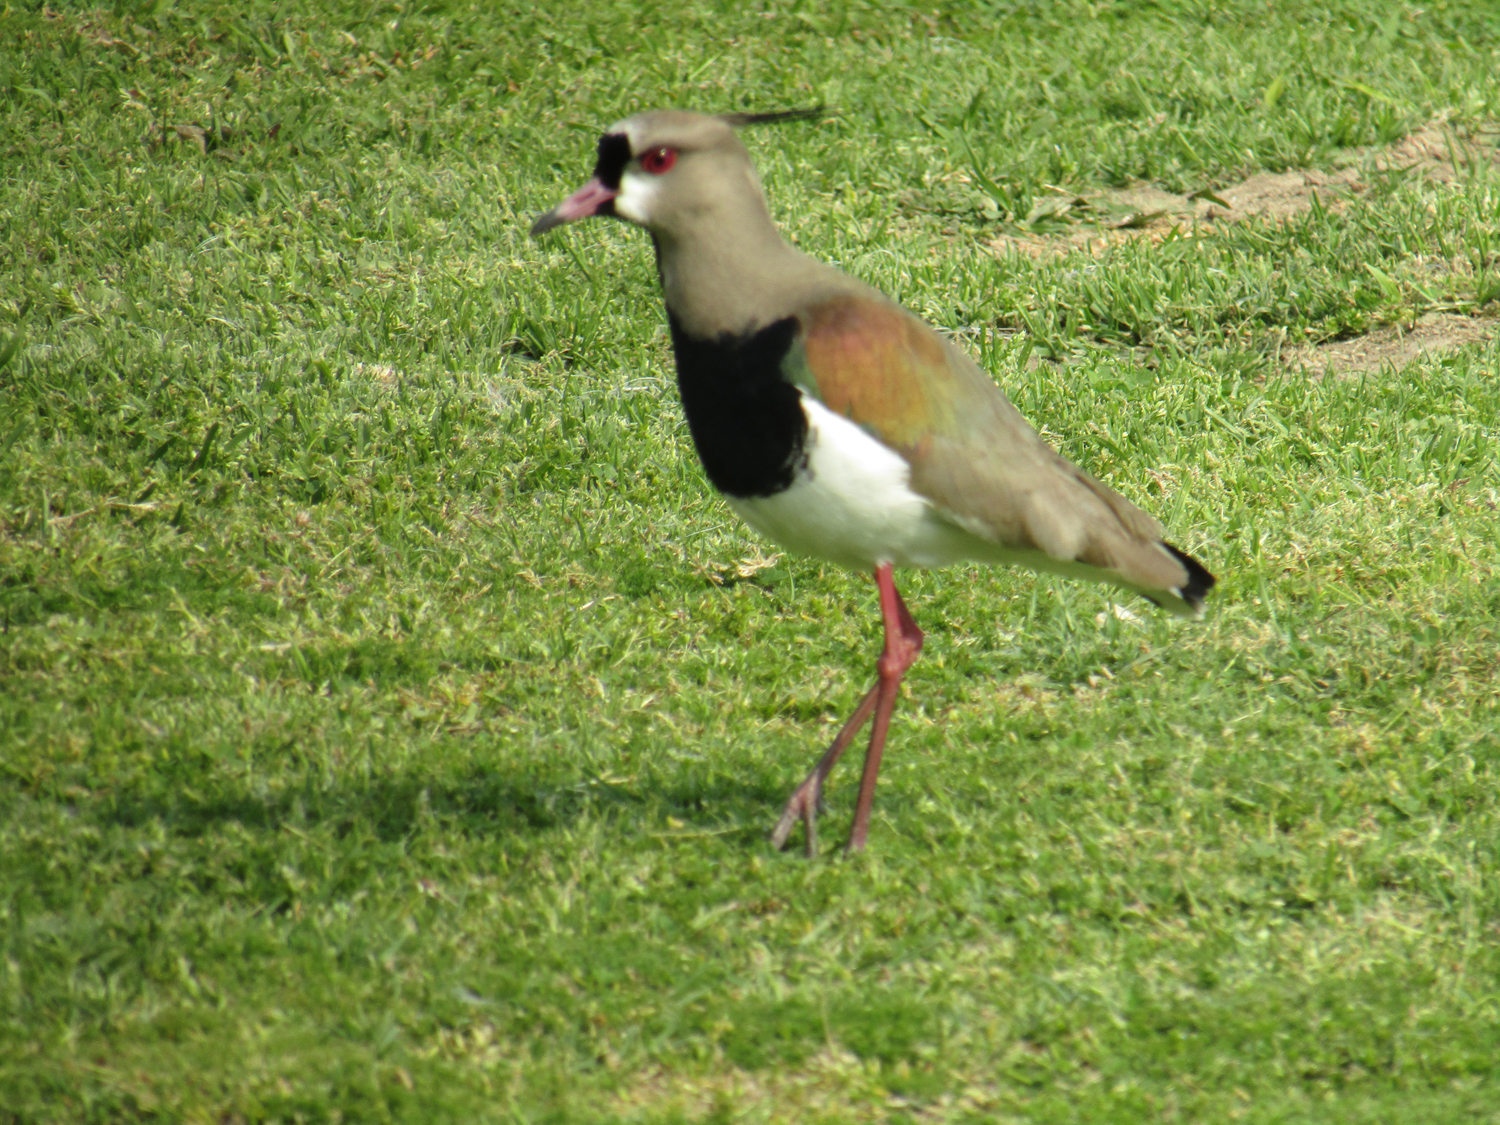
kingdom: Animalia
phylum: Chordata
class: Aves
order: Charadriiformes
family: Charadriidae
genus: Vanellus
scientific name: Vanellus chilensis
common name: Southern lapwing
